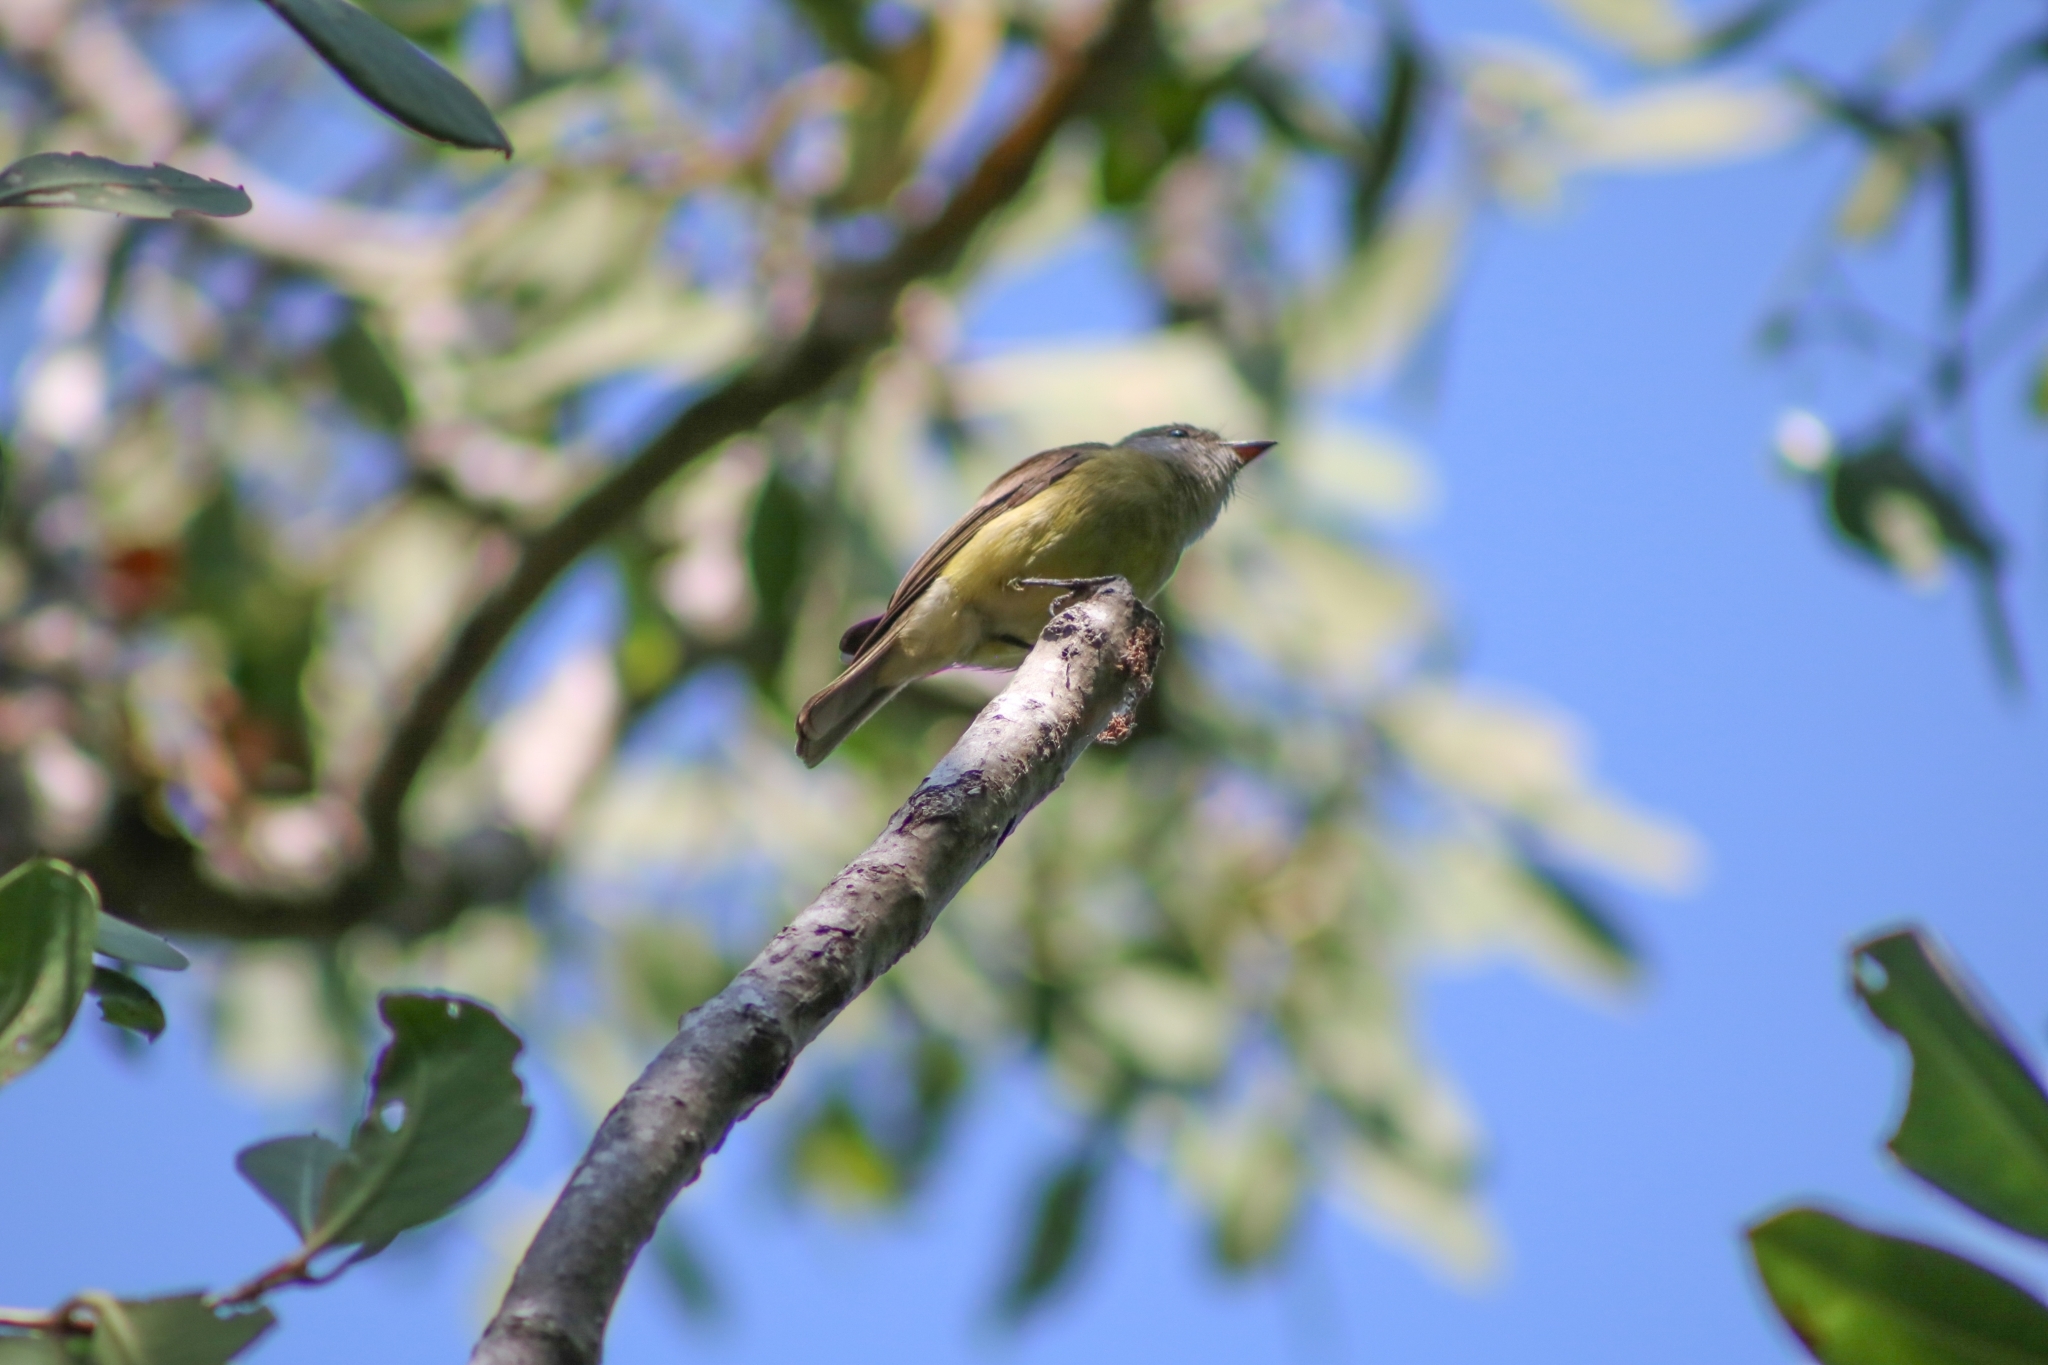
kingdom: Animalia
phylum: Chordata
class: Aves
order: Passeriformes
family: Acanthizidae
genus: Gerygone
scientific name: Gerygone olivacea
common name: White-throated gerygone
